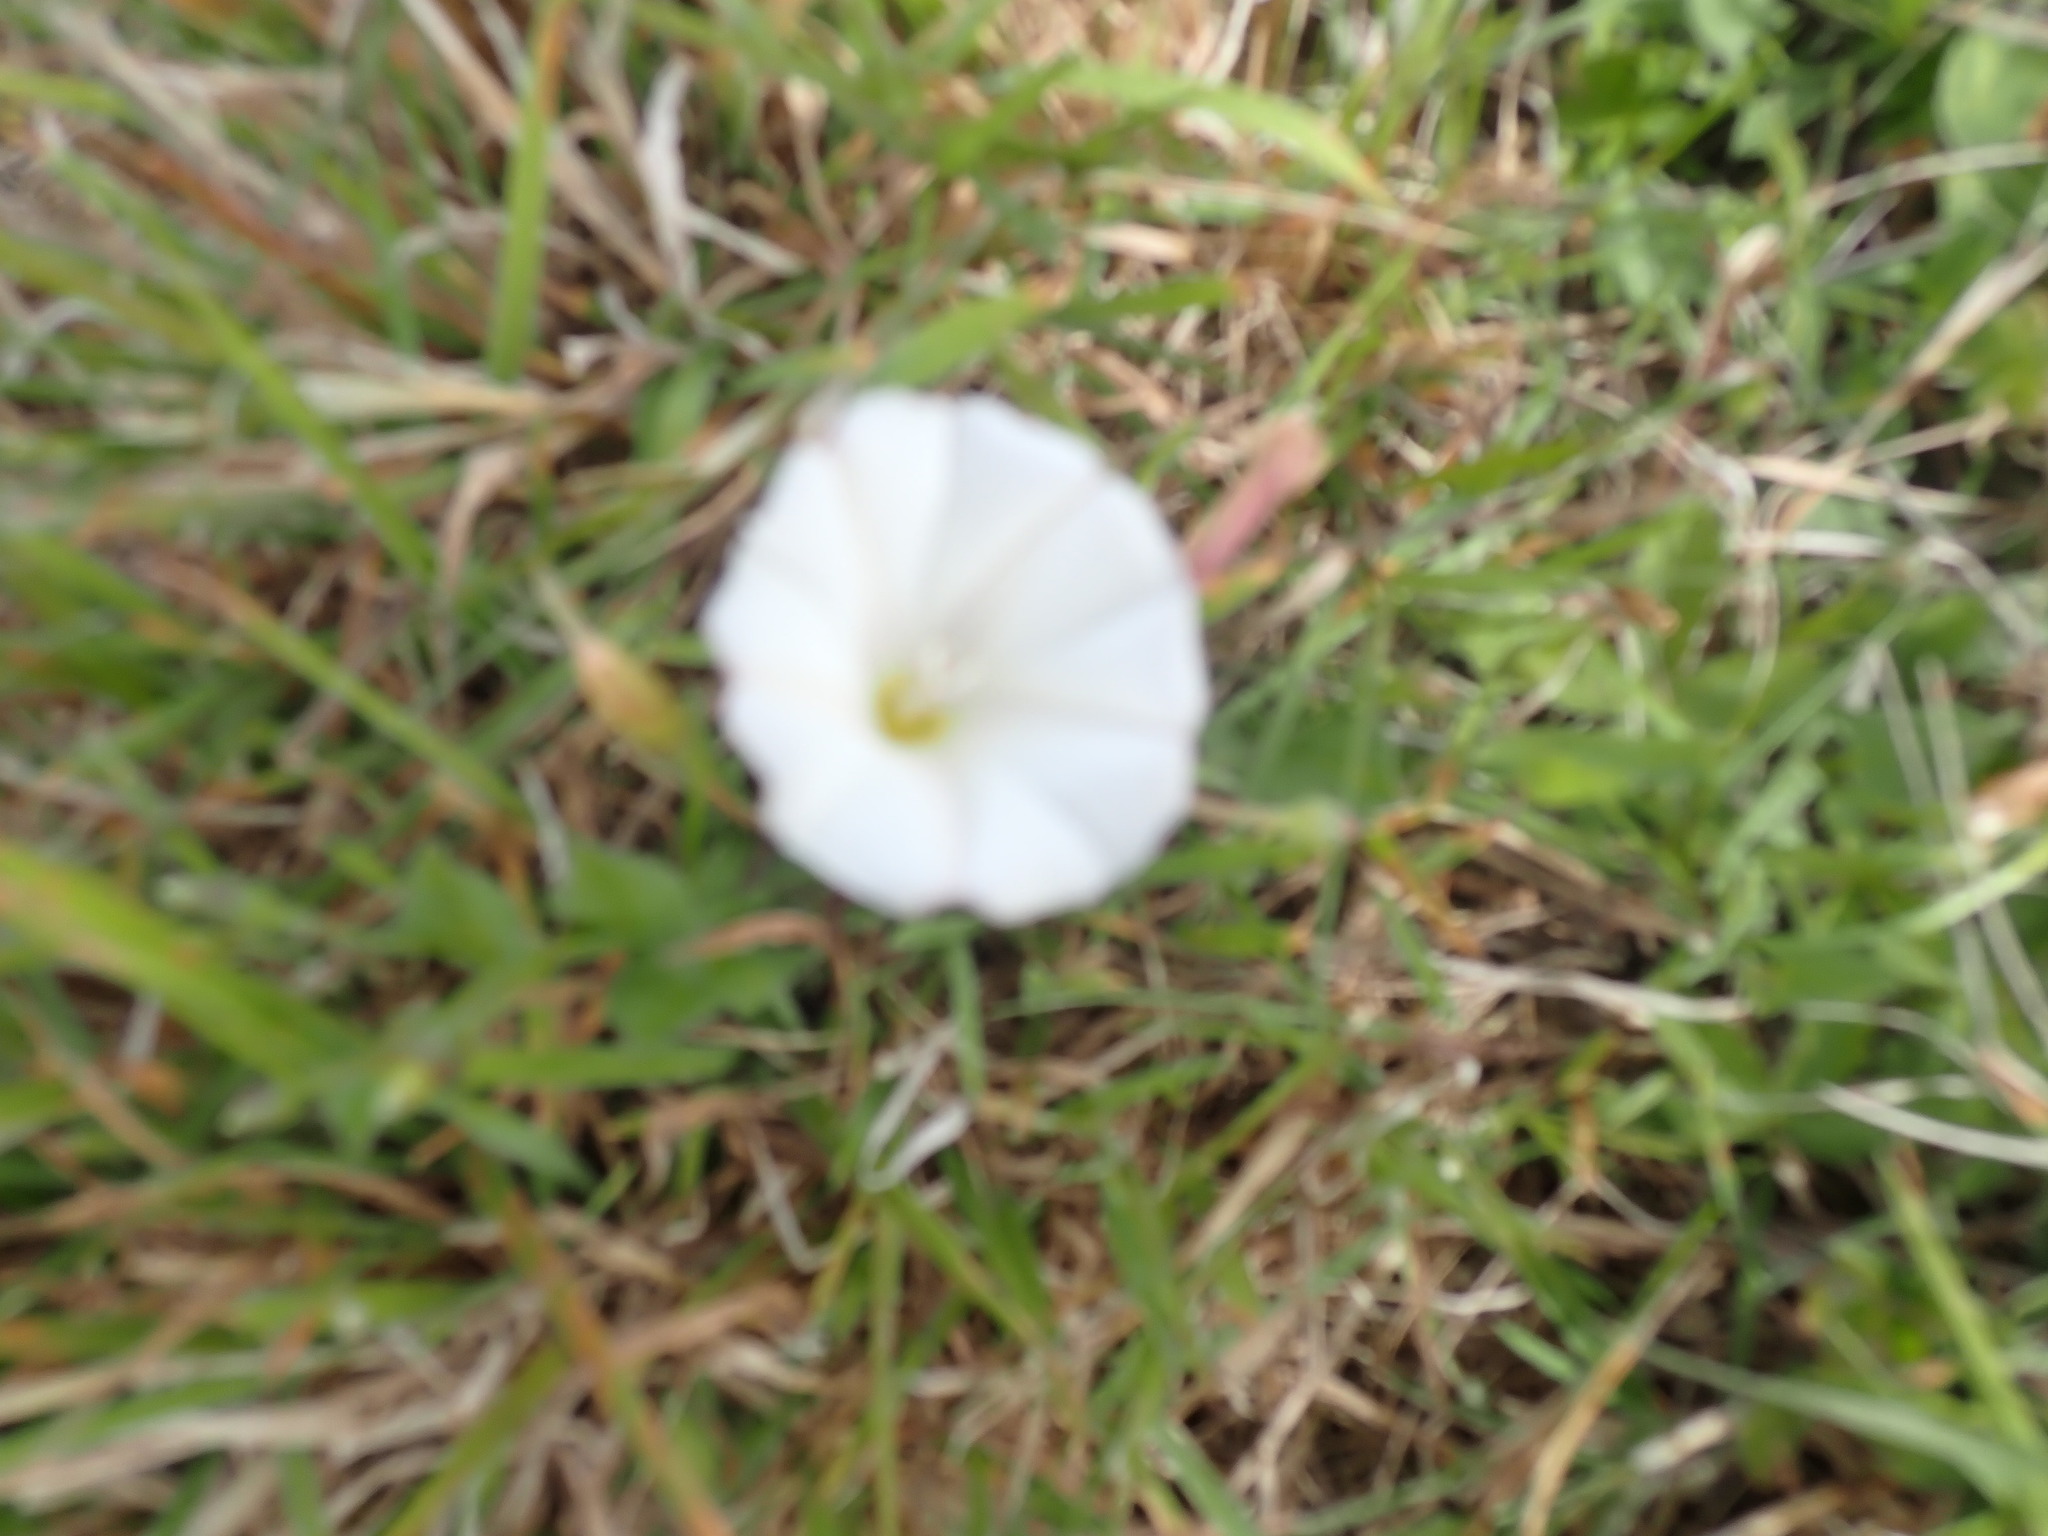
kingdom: Plantae
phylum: Tracheophyta
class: Magnoliopsida
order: Solanales
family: Convolvulaceae
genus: Convolvulus
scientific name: Convolvulus arvensis
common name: Field bindweed
